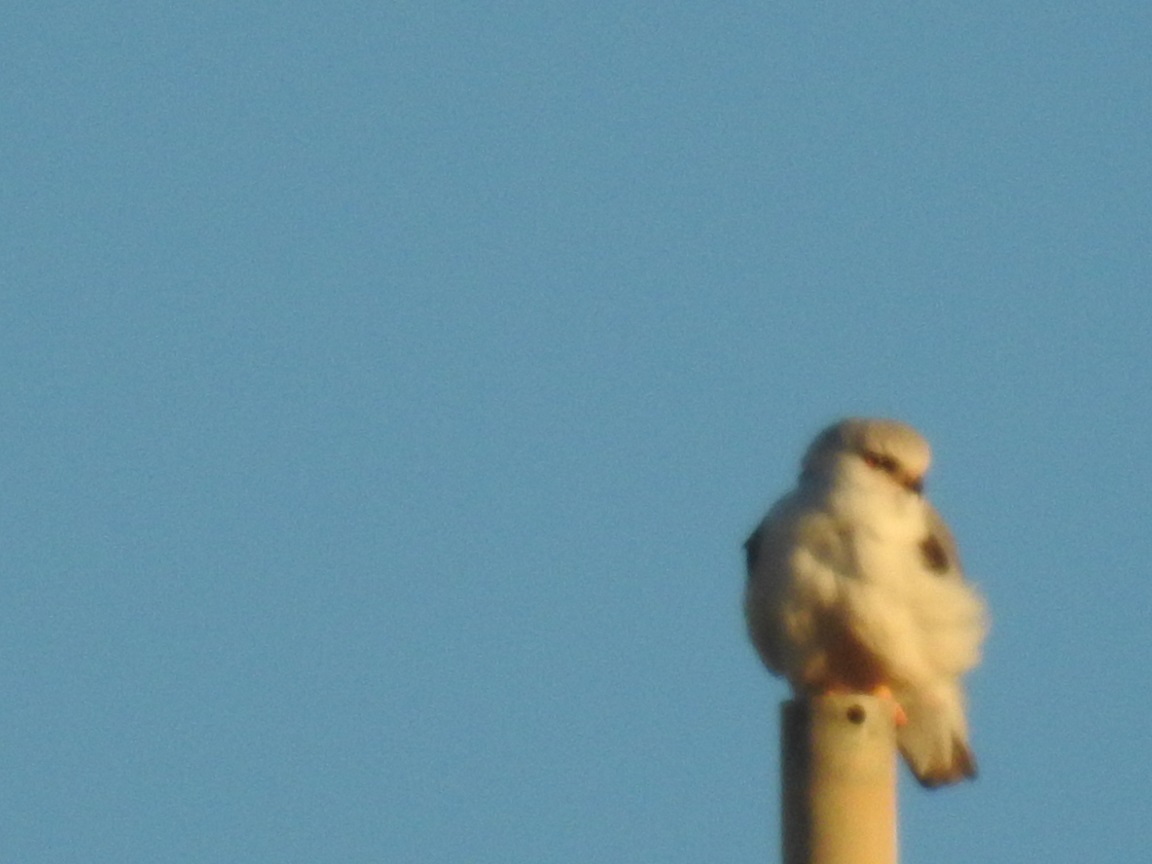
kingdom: Animalia
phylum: Chordata
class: Aves
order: Accipitriformes
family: Accipitridae
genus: Elanus
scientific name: Elanus caeruleus
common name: Black-winged kite
